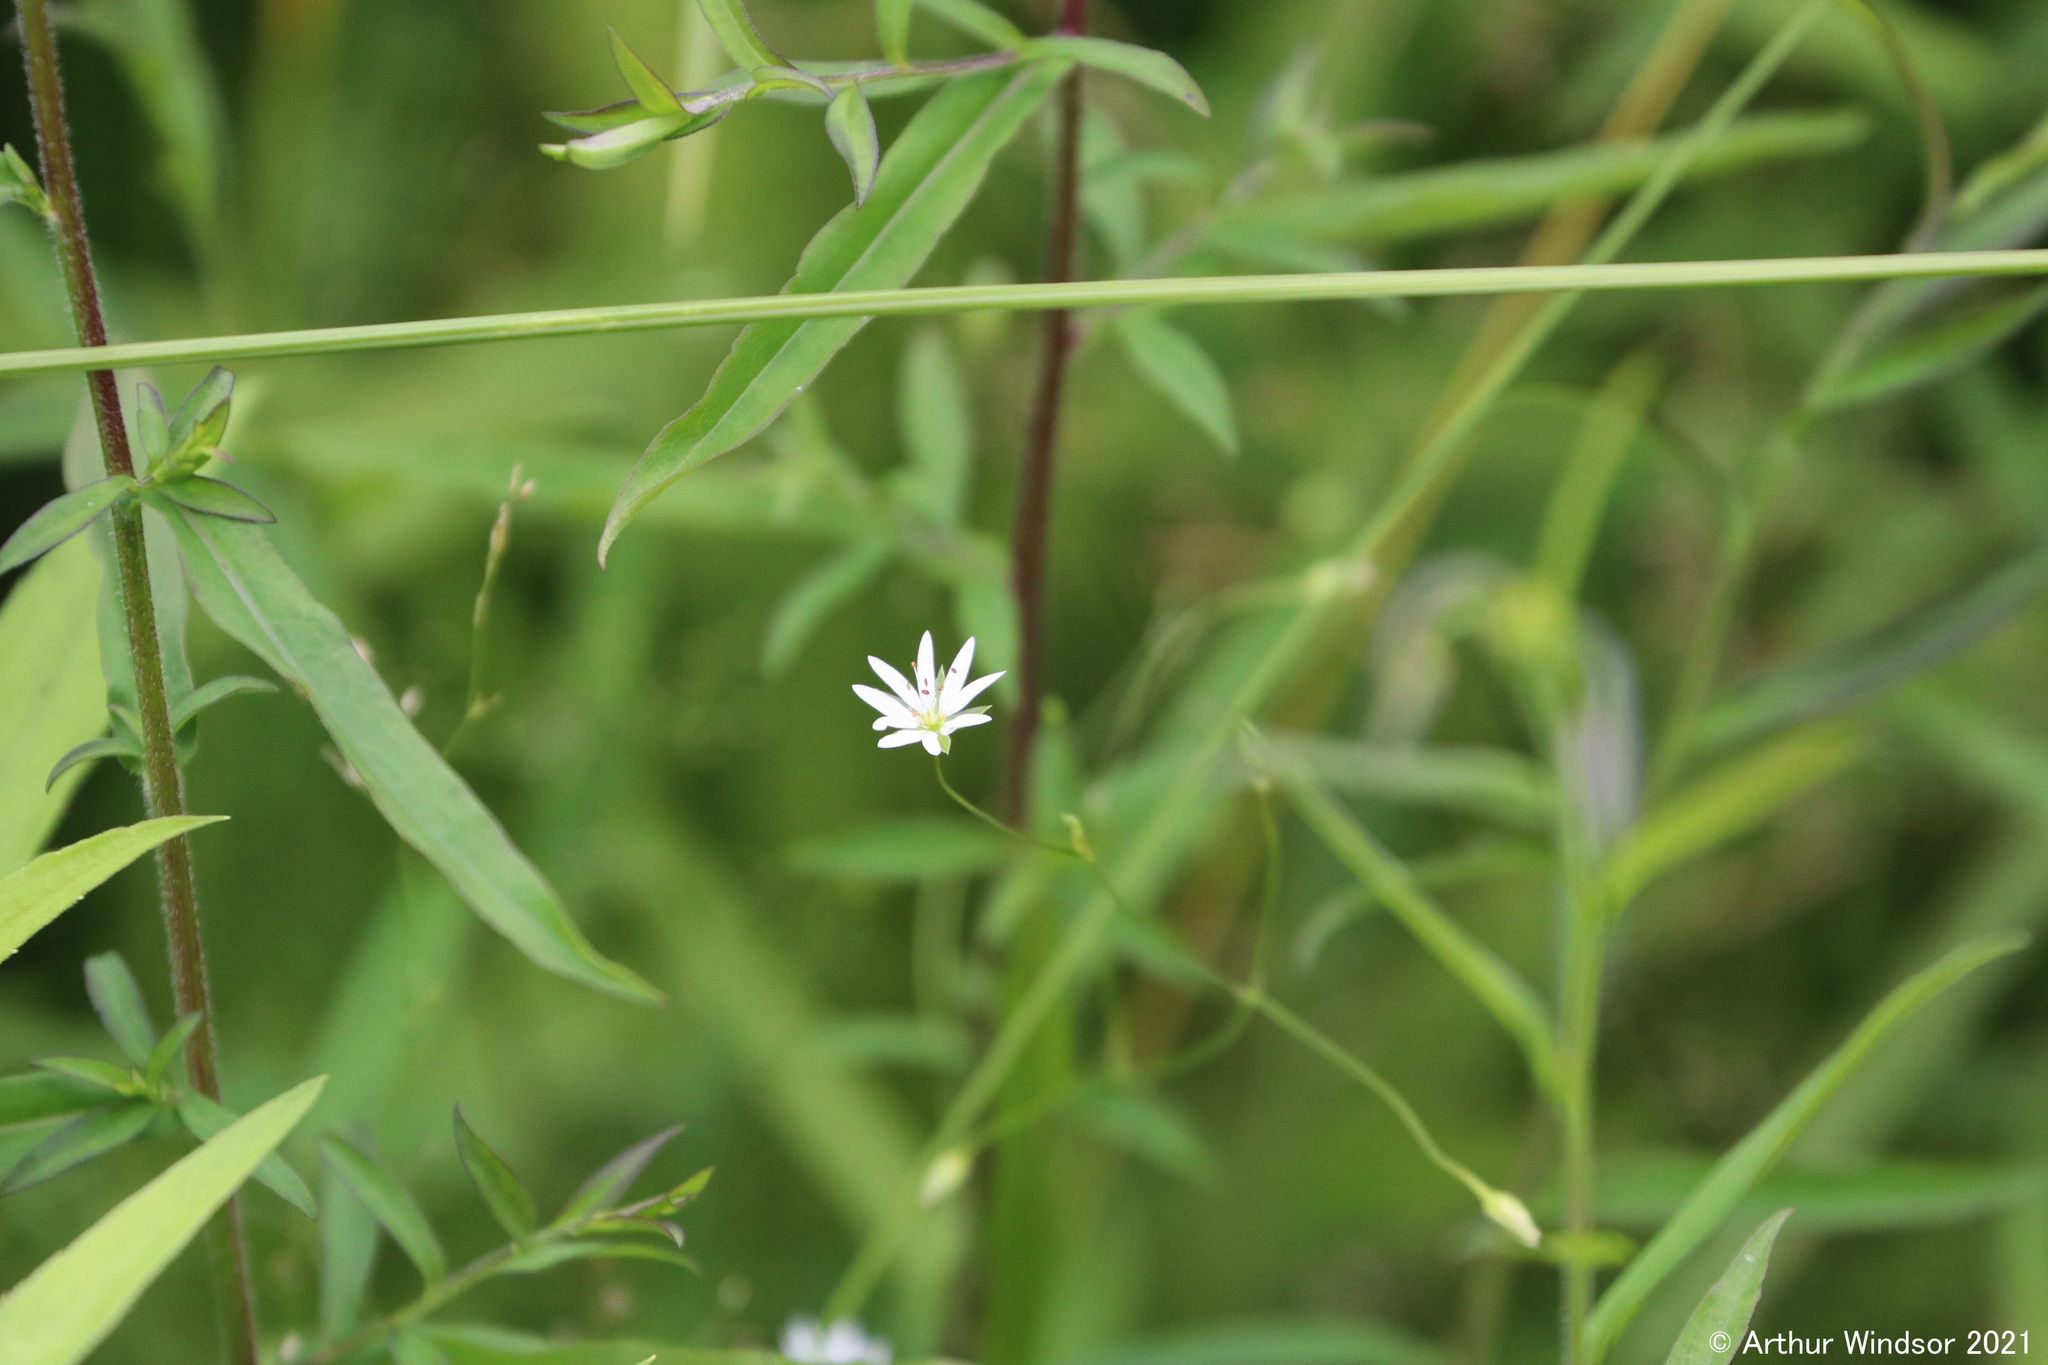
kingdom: Plantae
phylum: Tracheophyta
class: Magnoliopsida
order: Caryophyllales
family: Caryophyllaceae
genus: Stellaria
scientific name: Stellaria graminea
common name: Grass-like starwort
